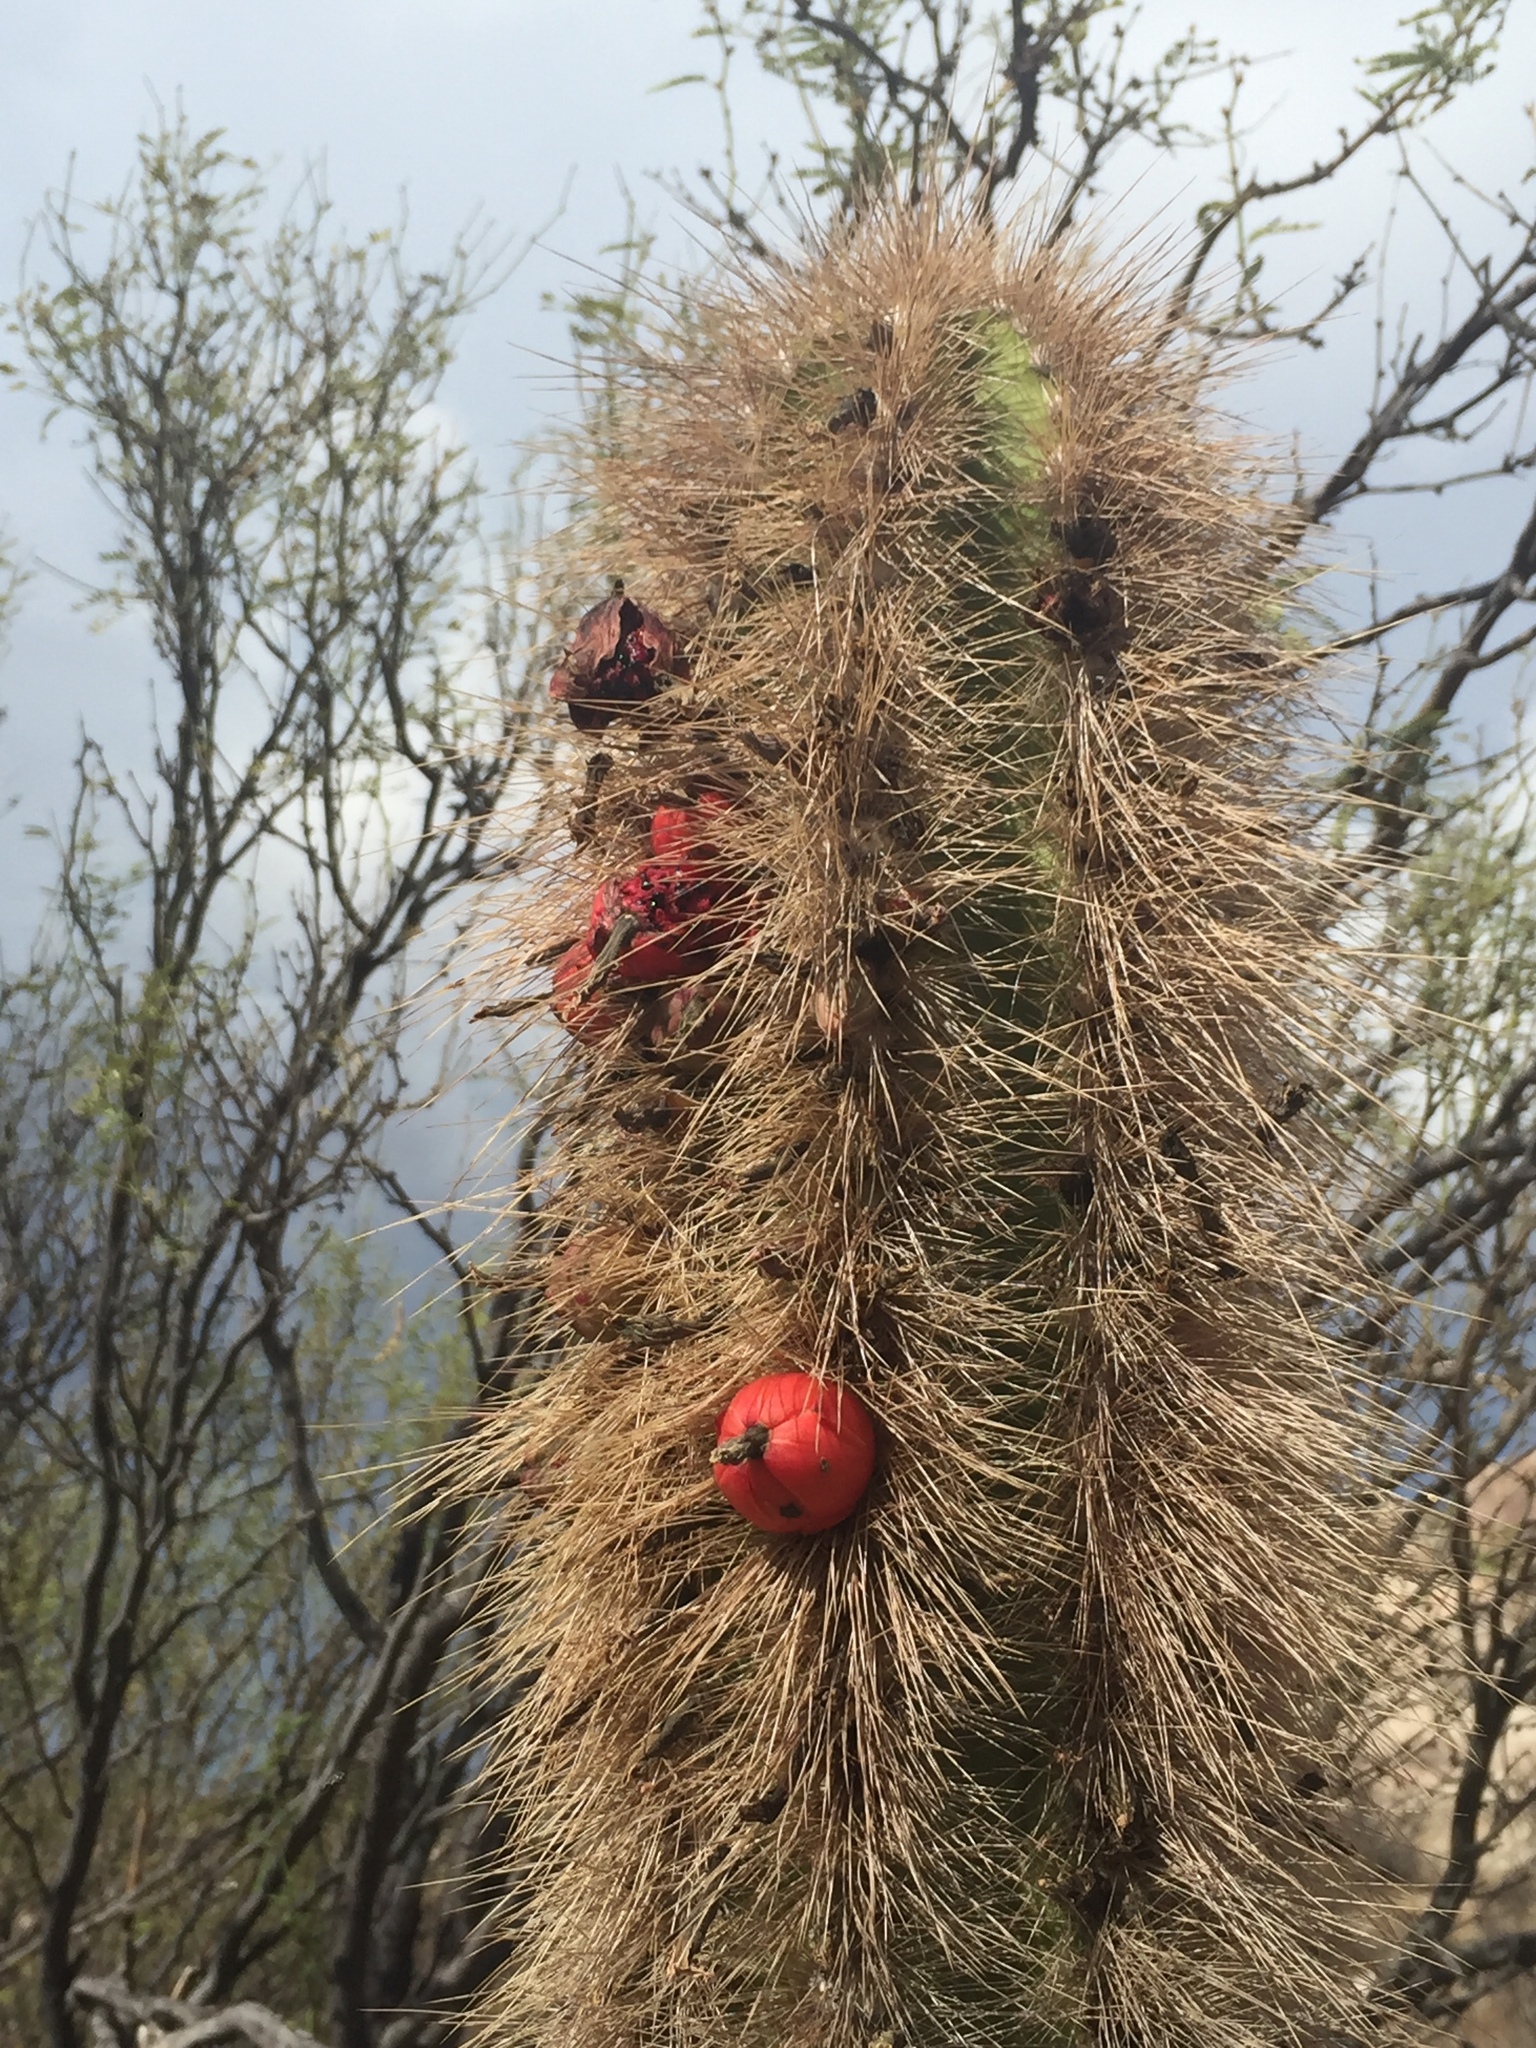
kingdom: Plantae
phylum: Tracheophyta
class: Magnoliopsida
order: Caryophyllales
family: Cactaceae
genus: Pachycereus
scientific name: Pachycereus schottii
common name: Senita cactus
